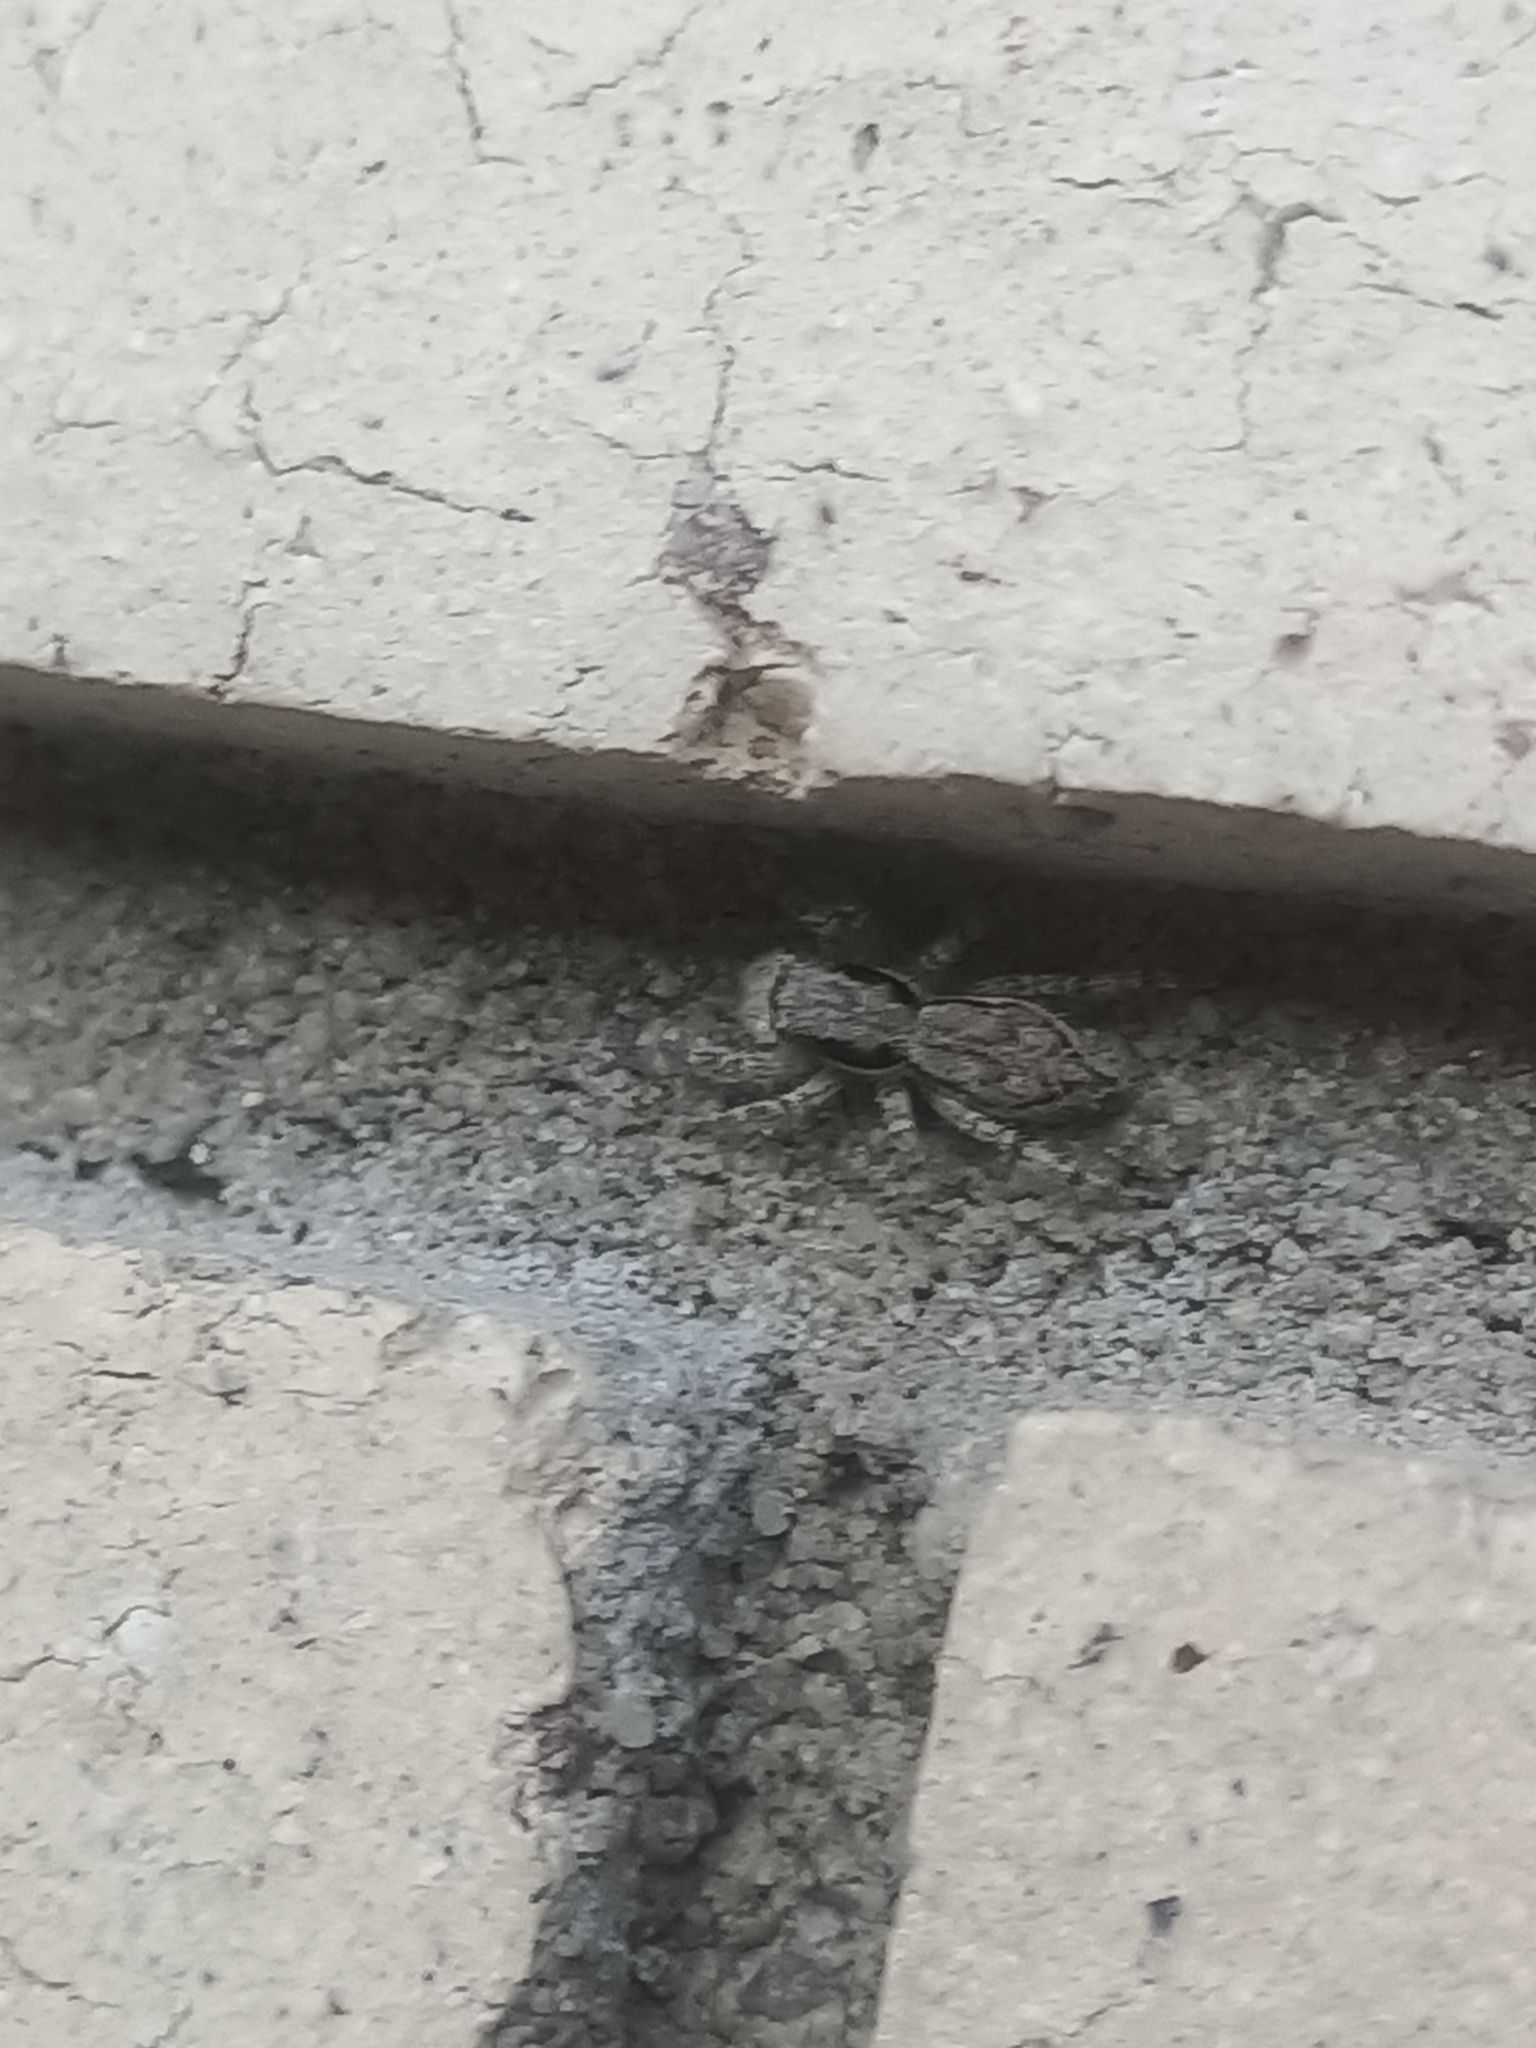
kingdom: Animalia
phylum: Arthropoda
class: Arachnida
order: Araneae
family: Salticidae
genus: Menemerus
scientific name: Menemerus bivittatus
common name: Gray wall jumper
